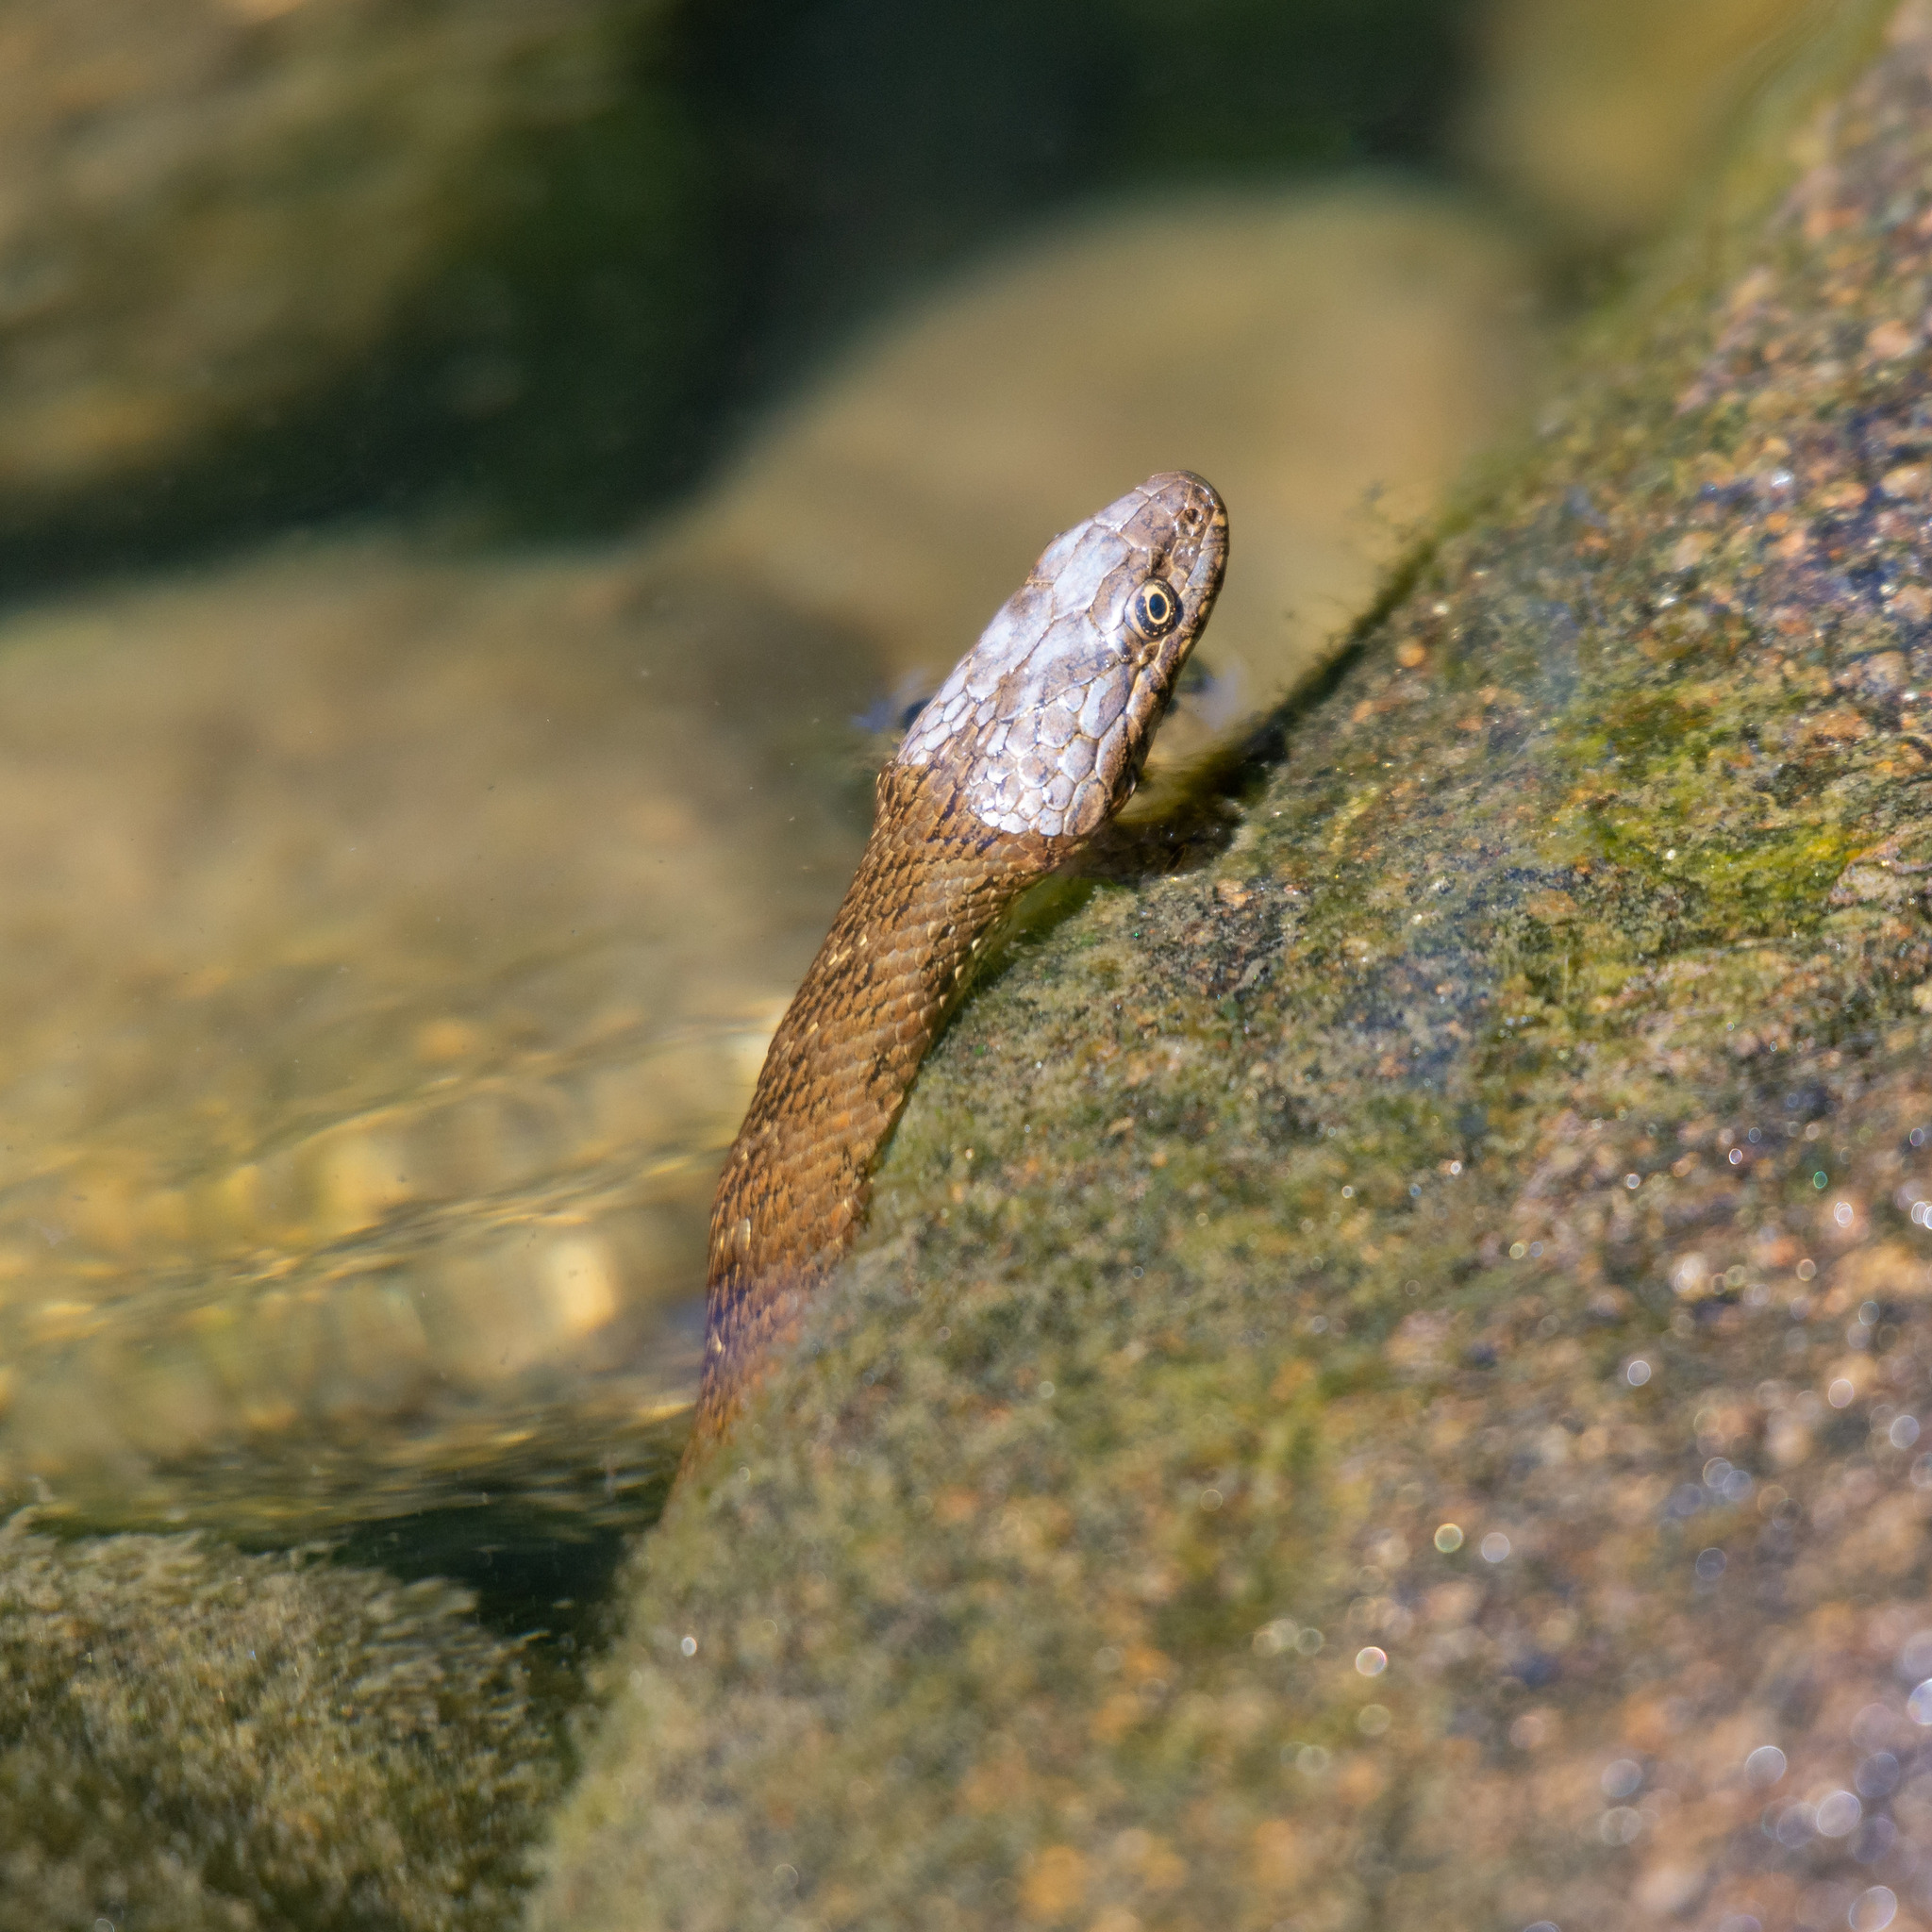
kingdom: Animalia
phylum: Chordata
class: Squamata
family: Colubridae
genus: Natrix
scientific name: Natrix maura
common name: Viperine water snake
